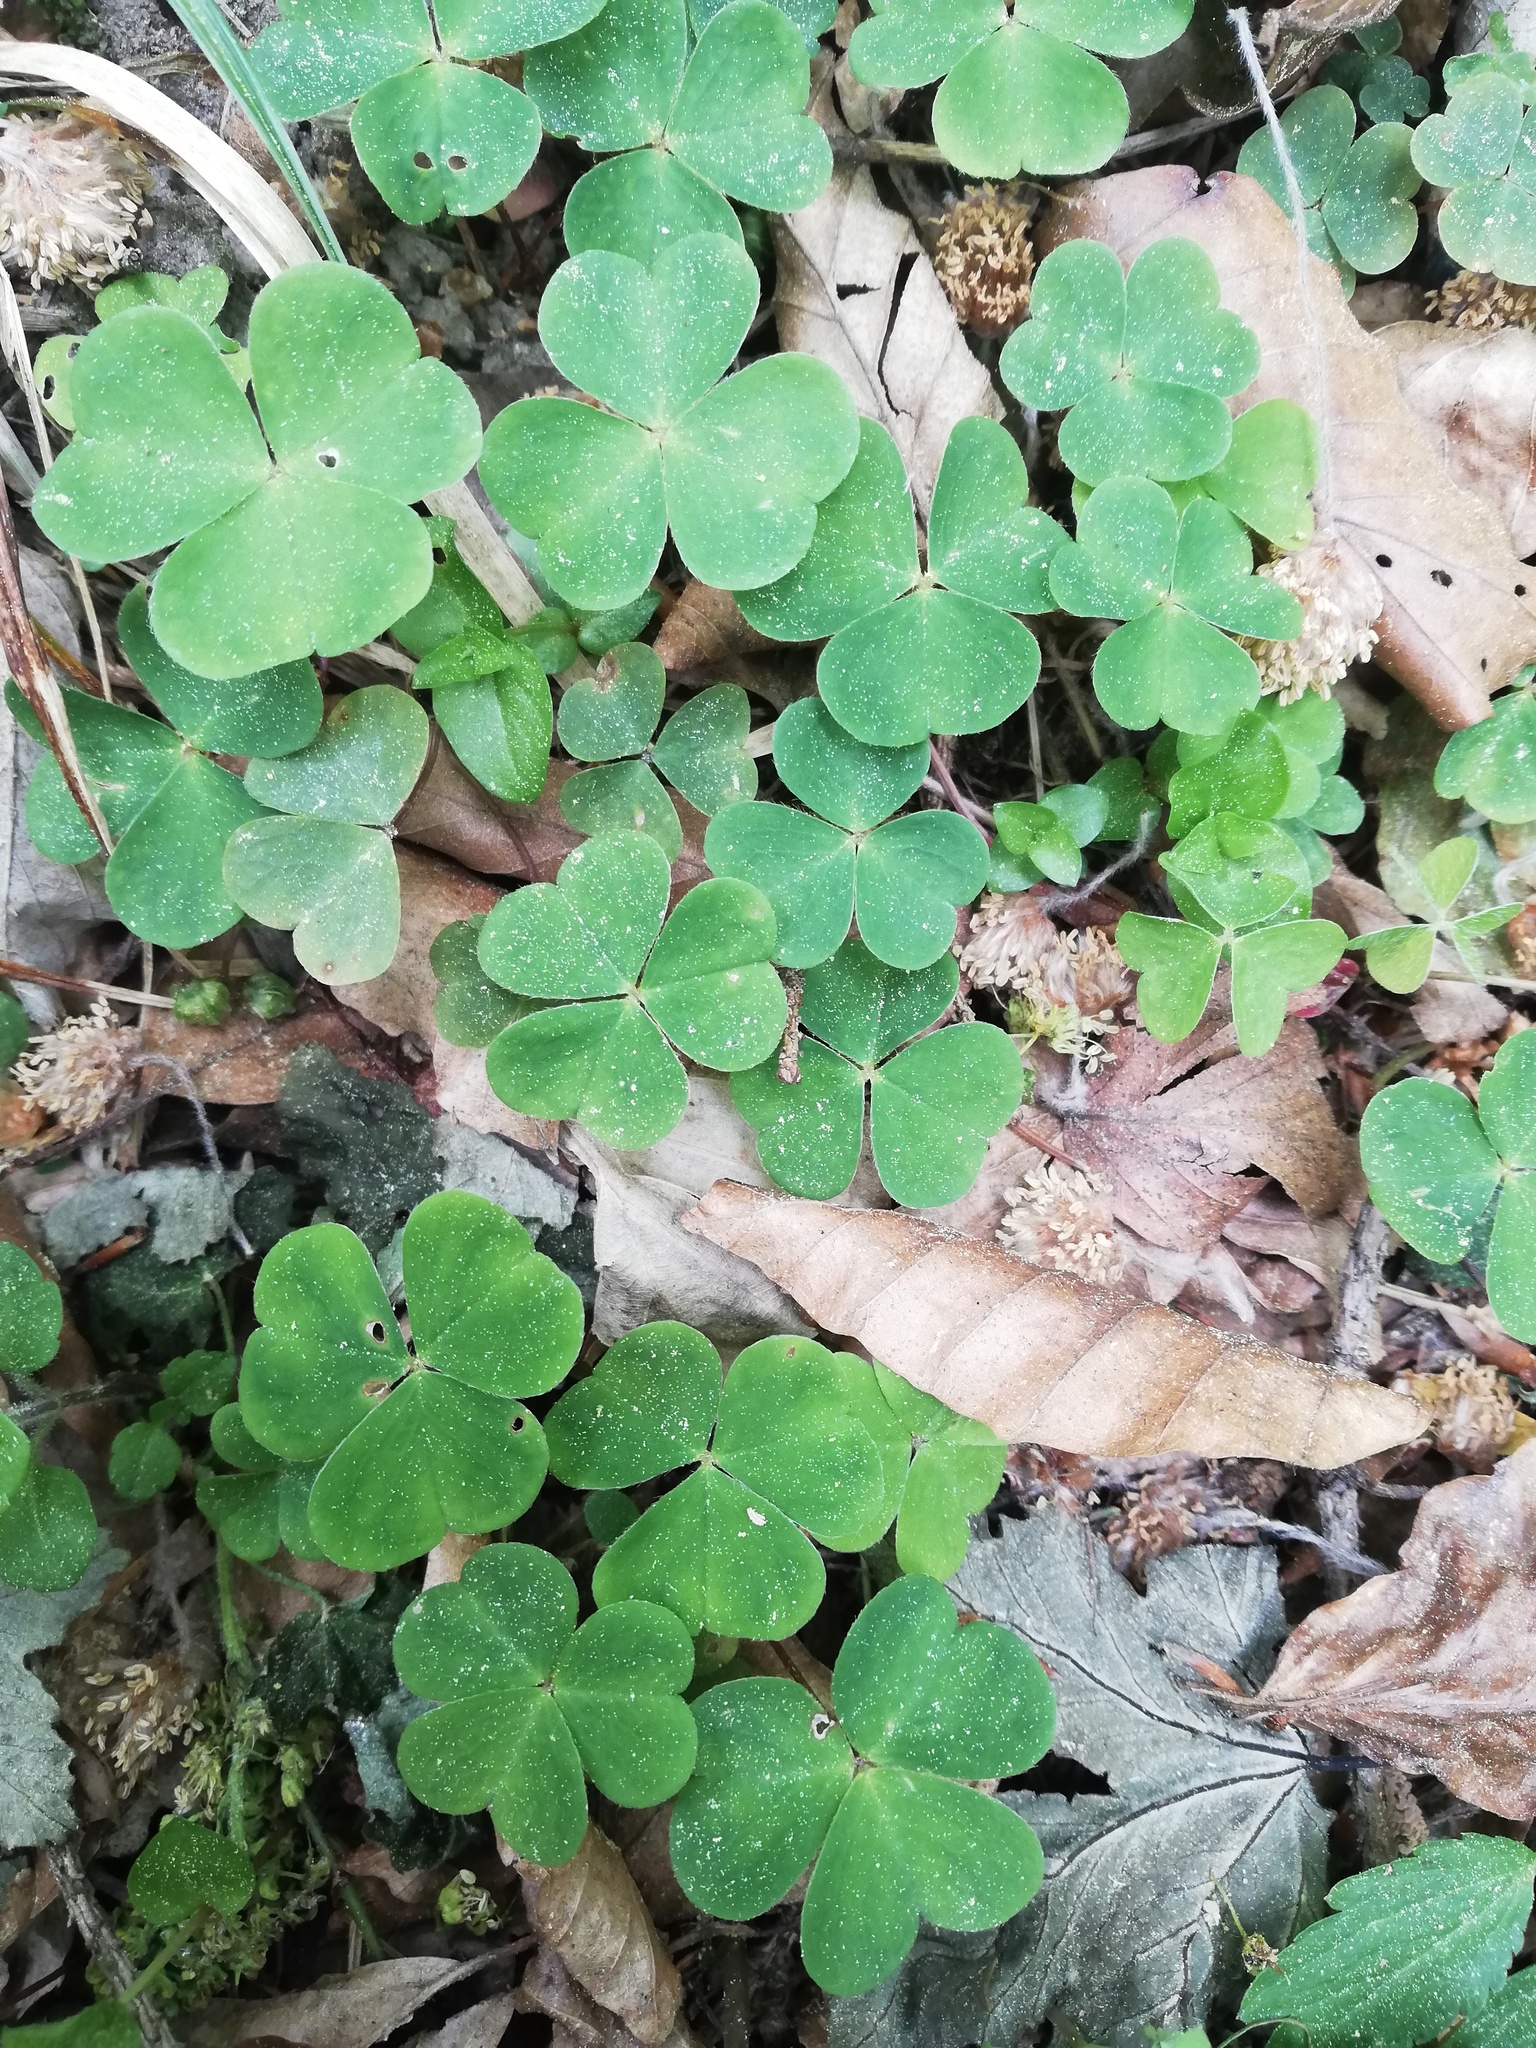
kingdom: Plantae
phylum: Tracheophyta
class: Magnoliopsida
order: Oxalidales
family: Oxalidaceae
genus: Oxalis
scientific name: Oxalis acetosella
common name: Wood-sorrel
